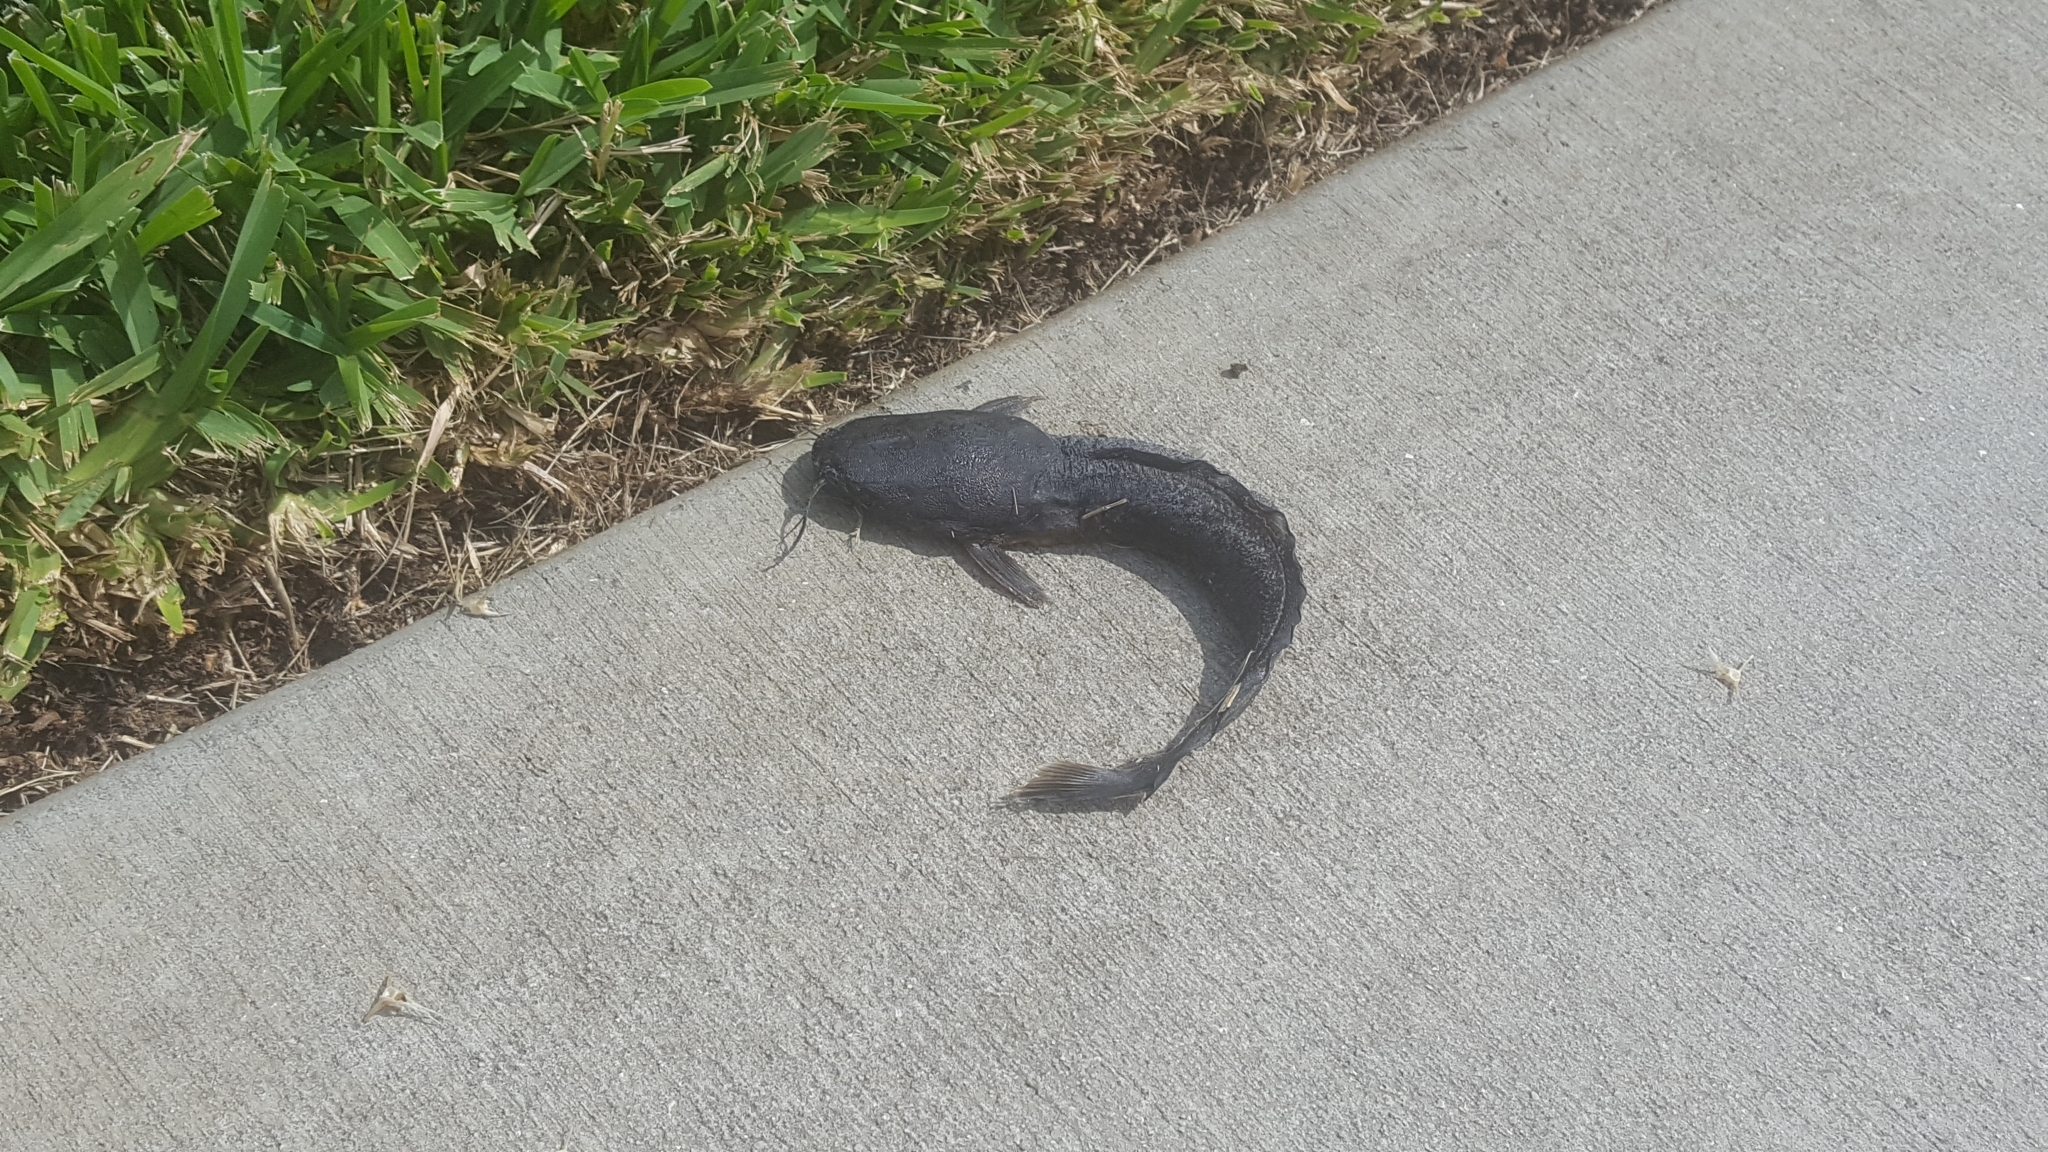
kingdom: Animalia
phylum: Chordata
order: Siluriformes
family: Clariidae
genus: Clarias
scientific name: Clarias batrachus
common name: Walking catfish
